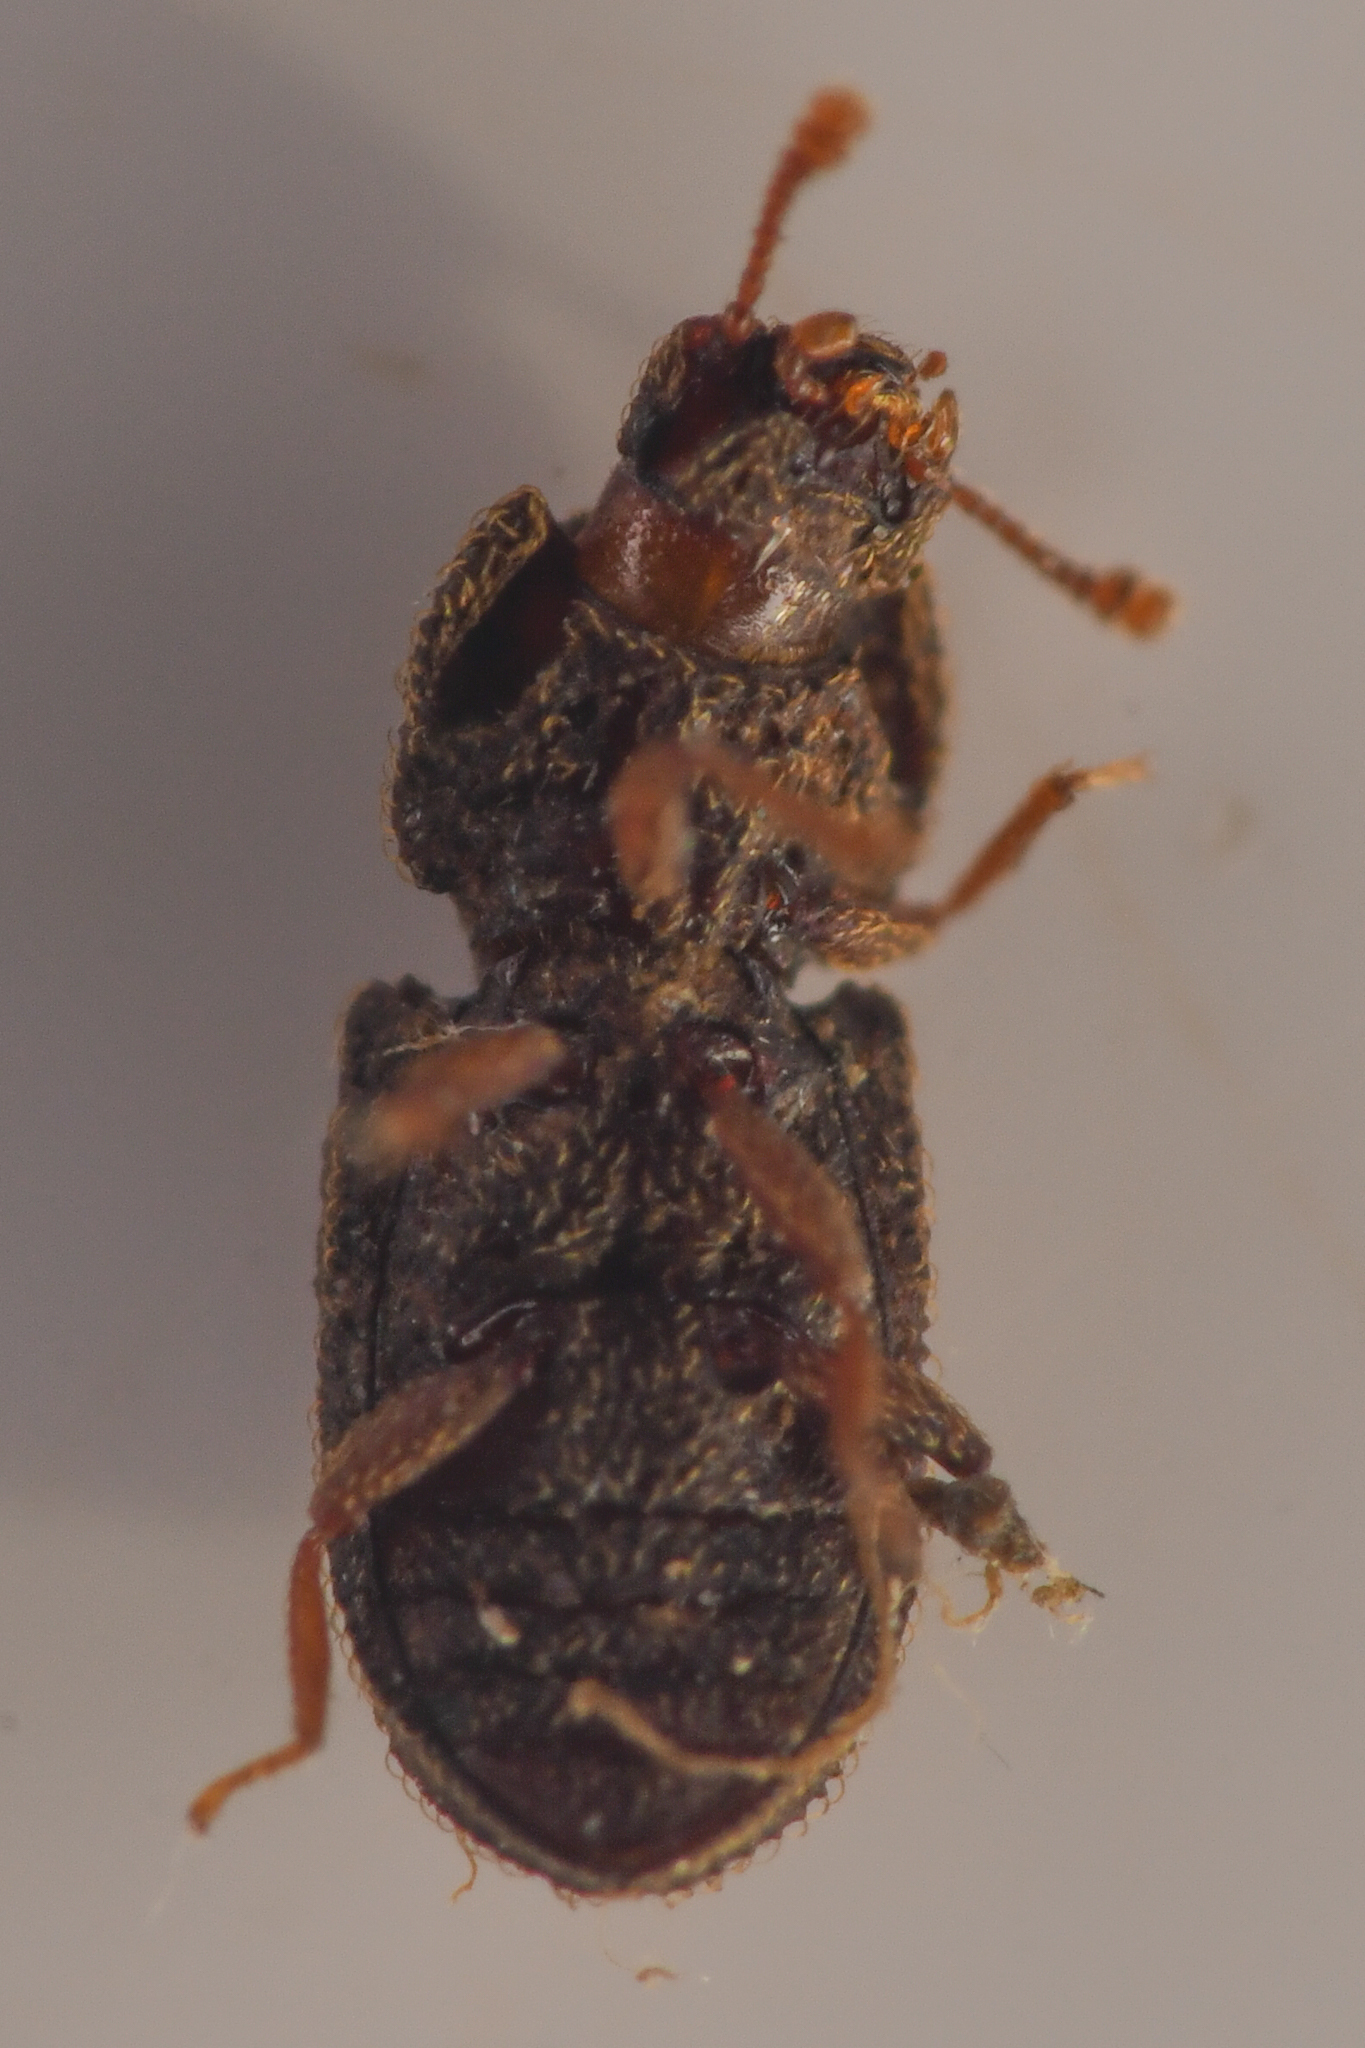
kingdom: Animalia
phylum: Arthropoda
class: Insecta
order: Coleoptera
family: Zopheridae
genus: Megataphrus
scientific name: Megataphrus tenuicornis
